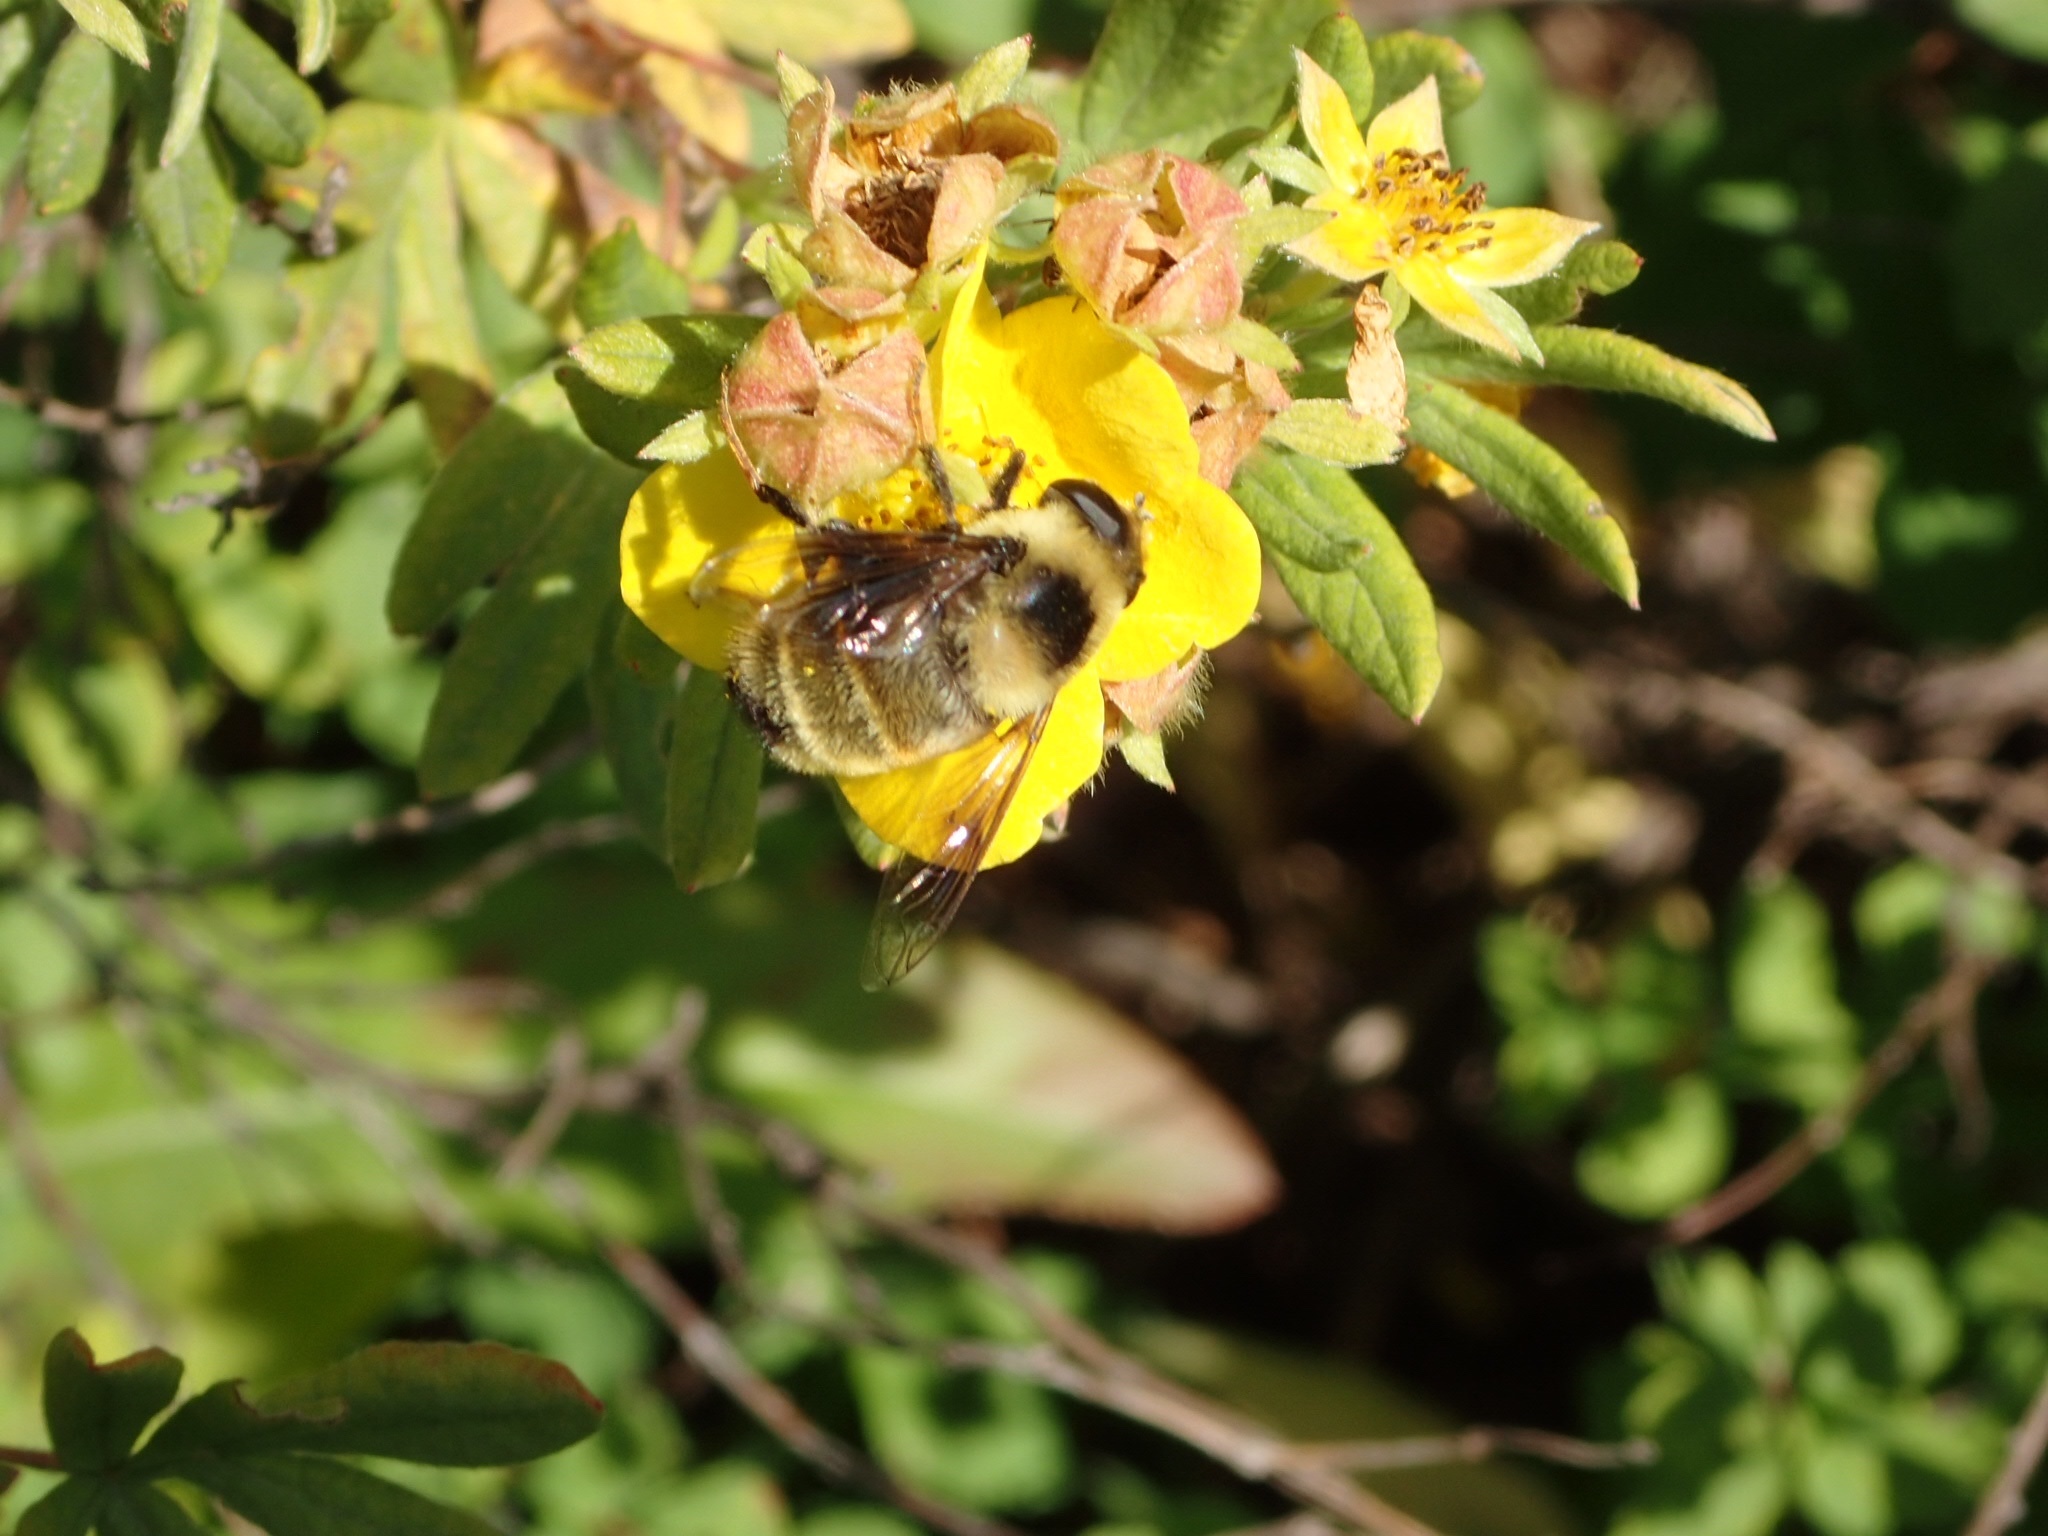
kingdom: Animalia
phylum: Arthropoda
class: Insecta
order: Diptera
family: Syrphidae
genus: Eristalis
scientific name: Eristalis flavipes
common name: Orange-legged drone fly
